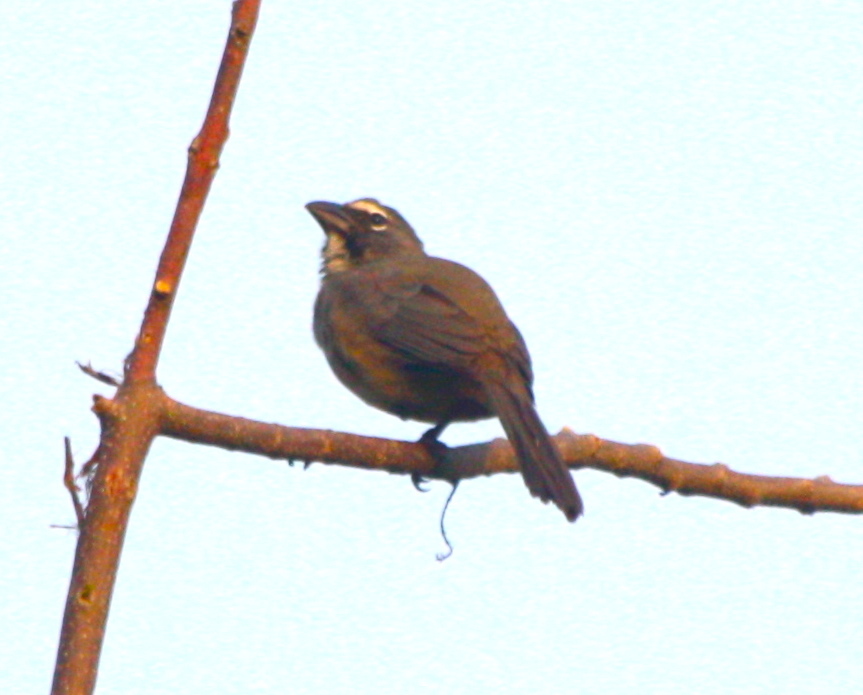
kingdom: Animalia
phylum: Chordata
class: Aves
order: Passeriformes
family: Thraupidae
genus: Saltator
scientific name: Saltator maximus
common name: Buff-throated saltator
